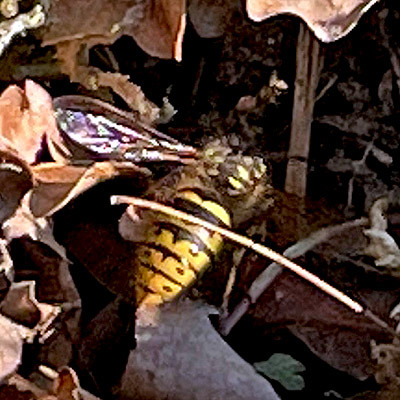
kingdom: Animalia
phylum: Arthropoda
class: Insecta
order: Hymenoptera
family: Vespidae
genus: Vespula
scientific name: Vespula vulgaris
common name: Common wasp
